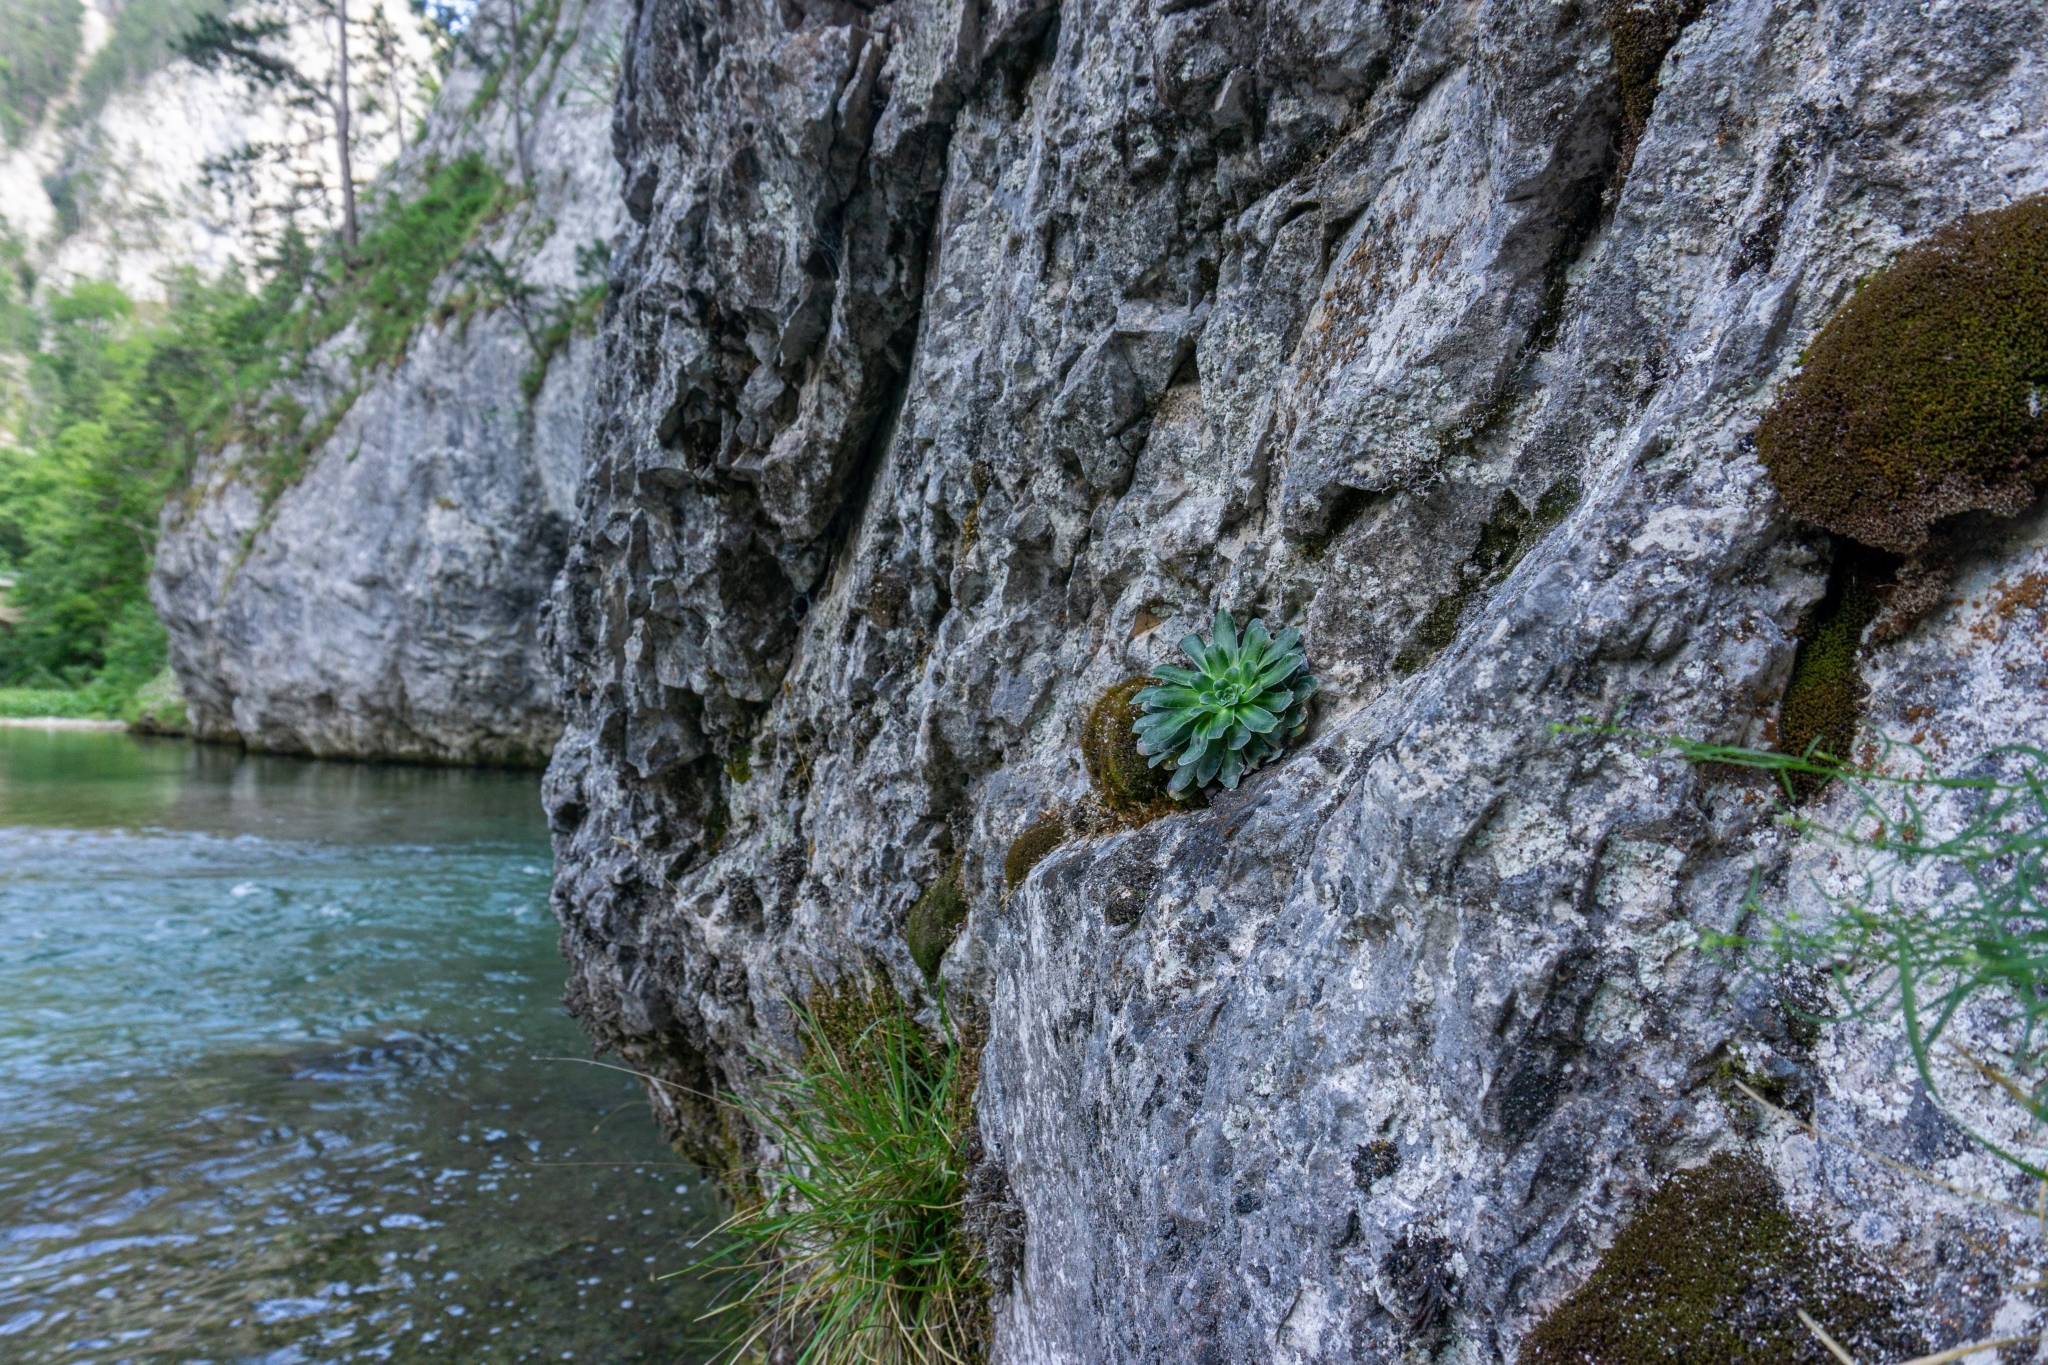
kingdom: Plantae
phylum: Tracheophyta
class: Magnoliopsida
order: Saxifragales
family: Saxifragaceae
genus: Saxifraga
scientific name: Saxifraga mutata
